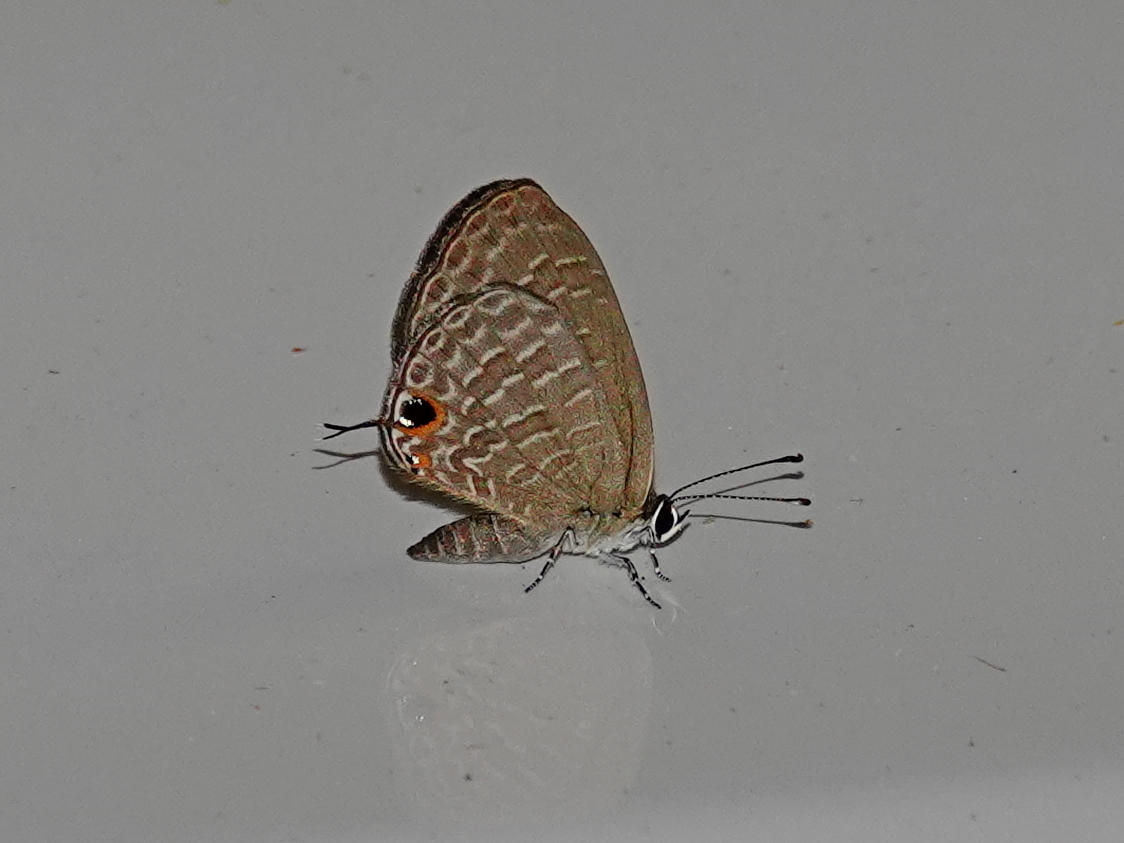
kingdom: Animalia
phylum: Arthropoda
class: Insecta
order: Lepidoptera
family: Lycaenidae
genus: Jamides
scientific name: Jamides bochus
